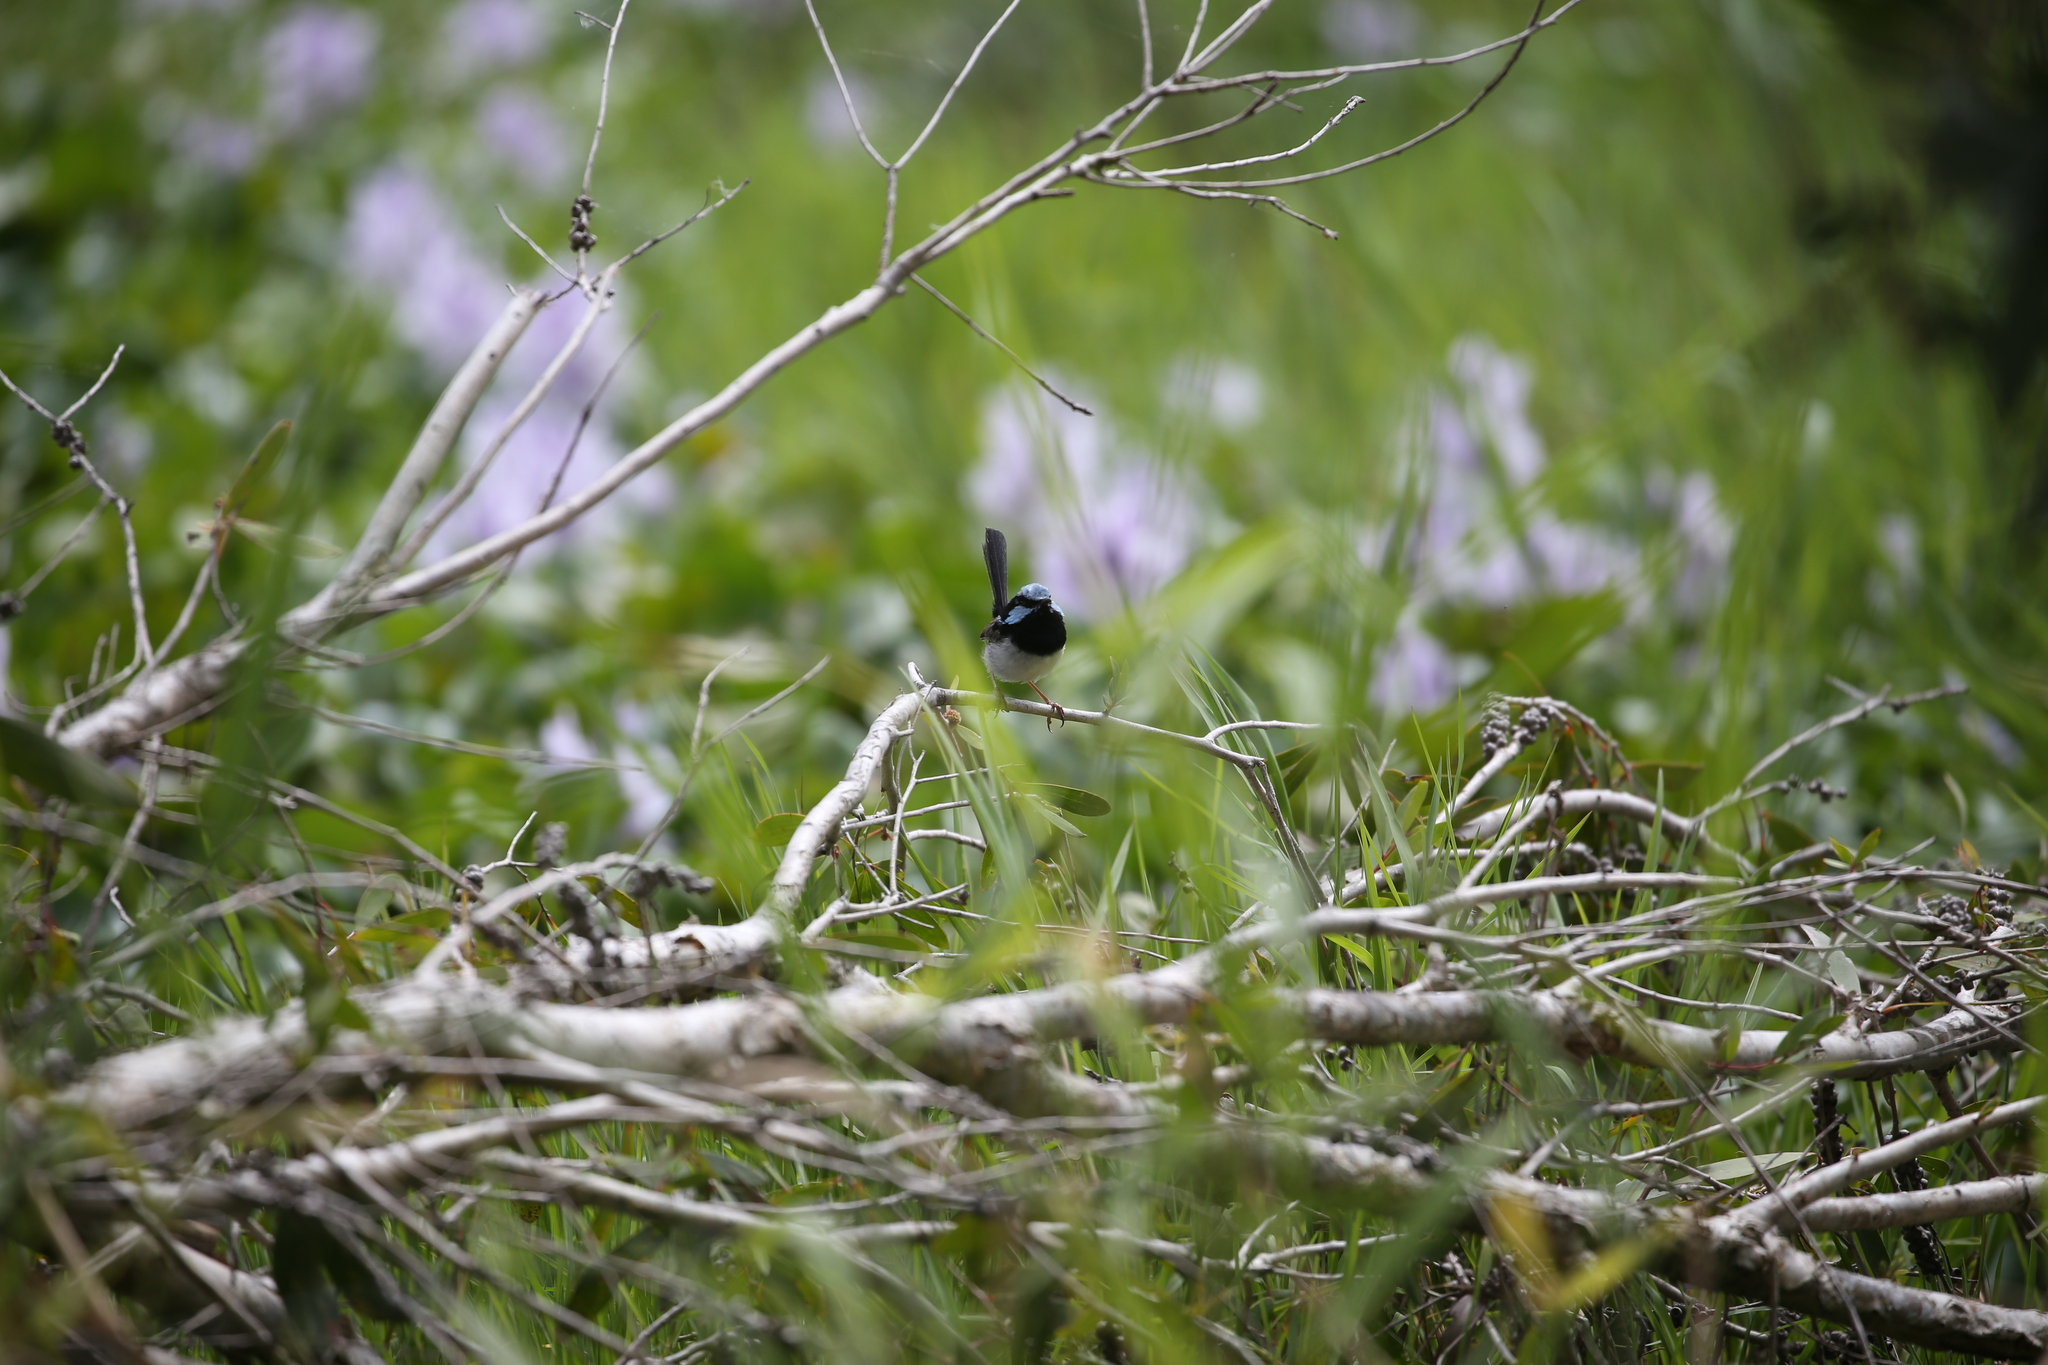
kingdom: Animalia
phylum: Chordata
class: Aves
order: Passeriformes
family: Maluridae
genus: Malurus
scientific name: Malurus cyaneus
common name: Superb fairywren
